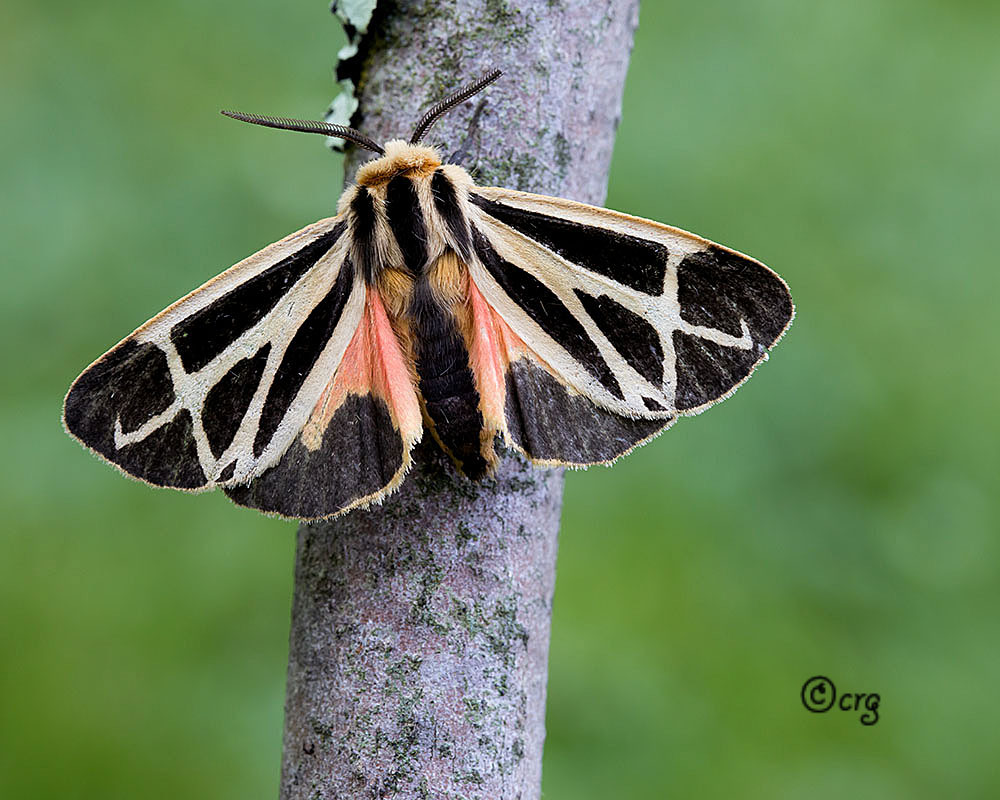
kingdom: Animalia
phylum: Arthropoda
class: Insecta
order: Lepidoptera
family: Erebidae
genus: Apantesis
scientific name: Apantesis nais
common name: Nais tiger moth
